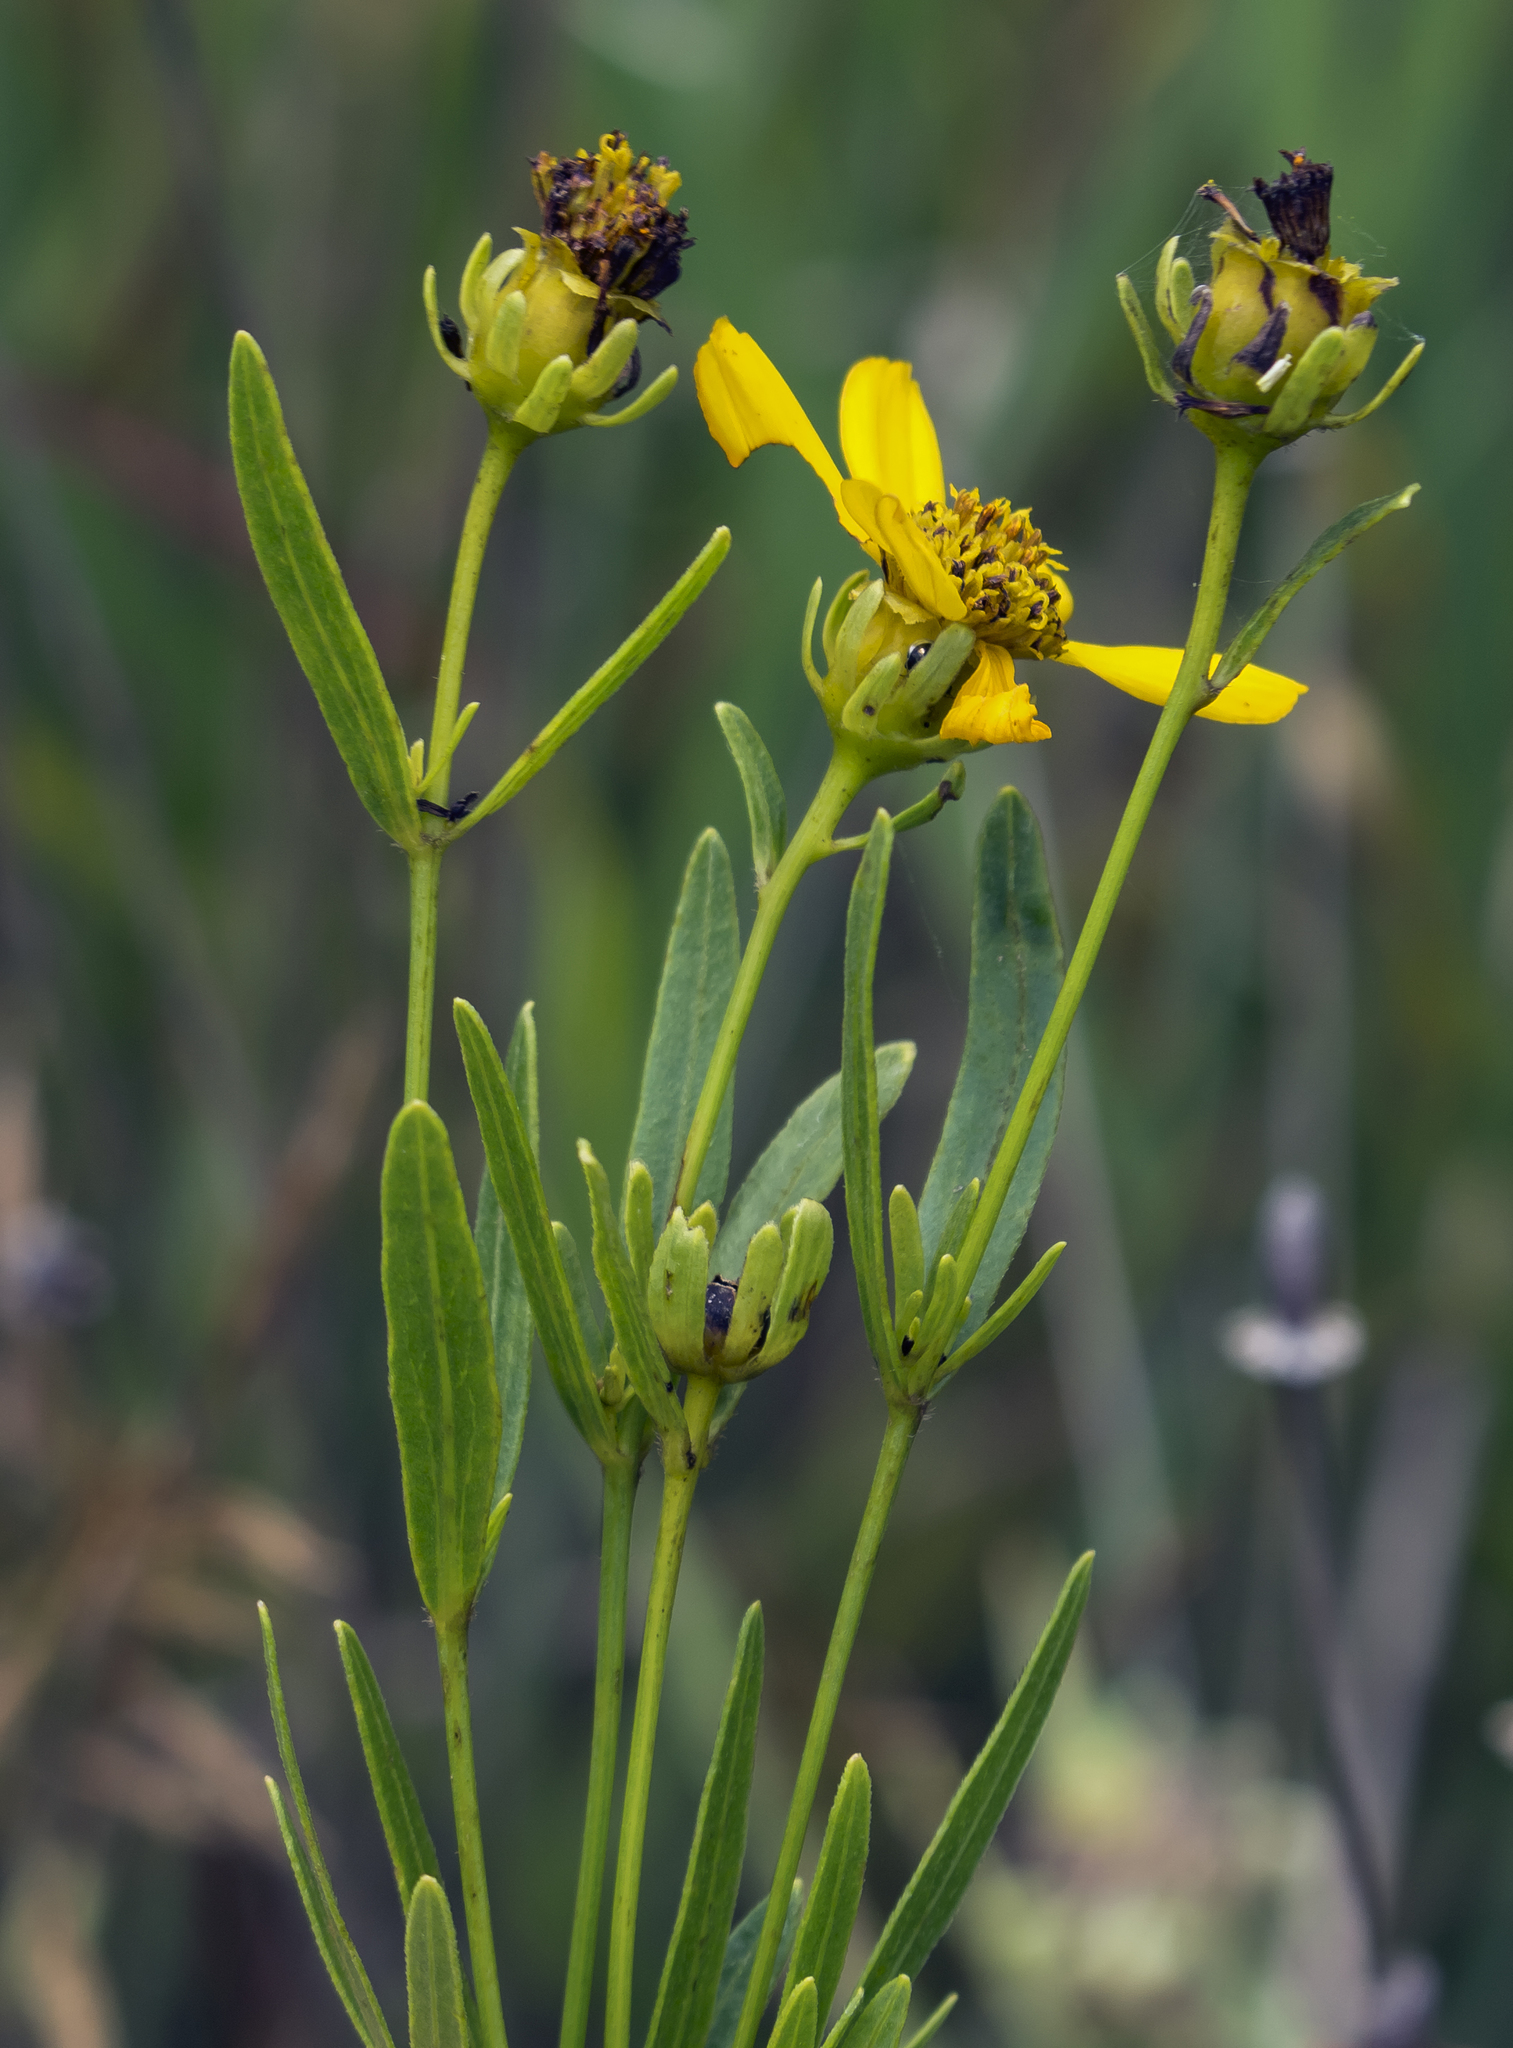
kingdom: Plantae
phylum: Tracheophyta
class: Magnoliopsida
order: Asterales
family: Asteraceae
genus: Coreopsis
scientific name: Coreopsis palmata
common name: Prairie coreopsis
